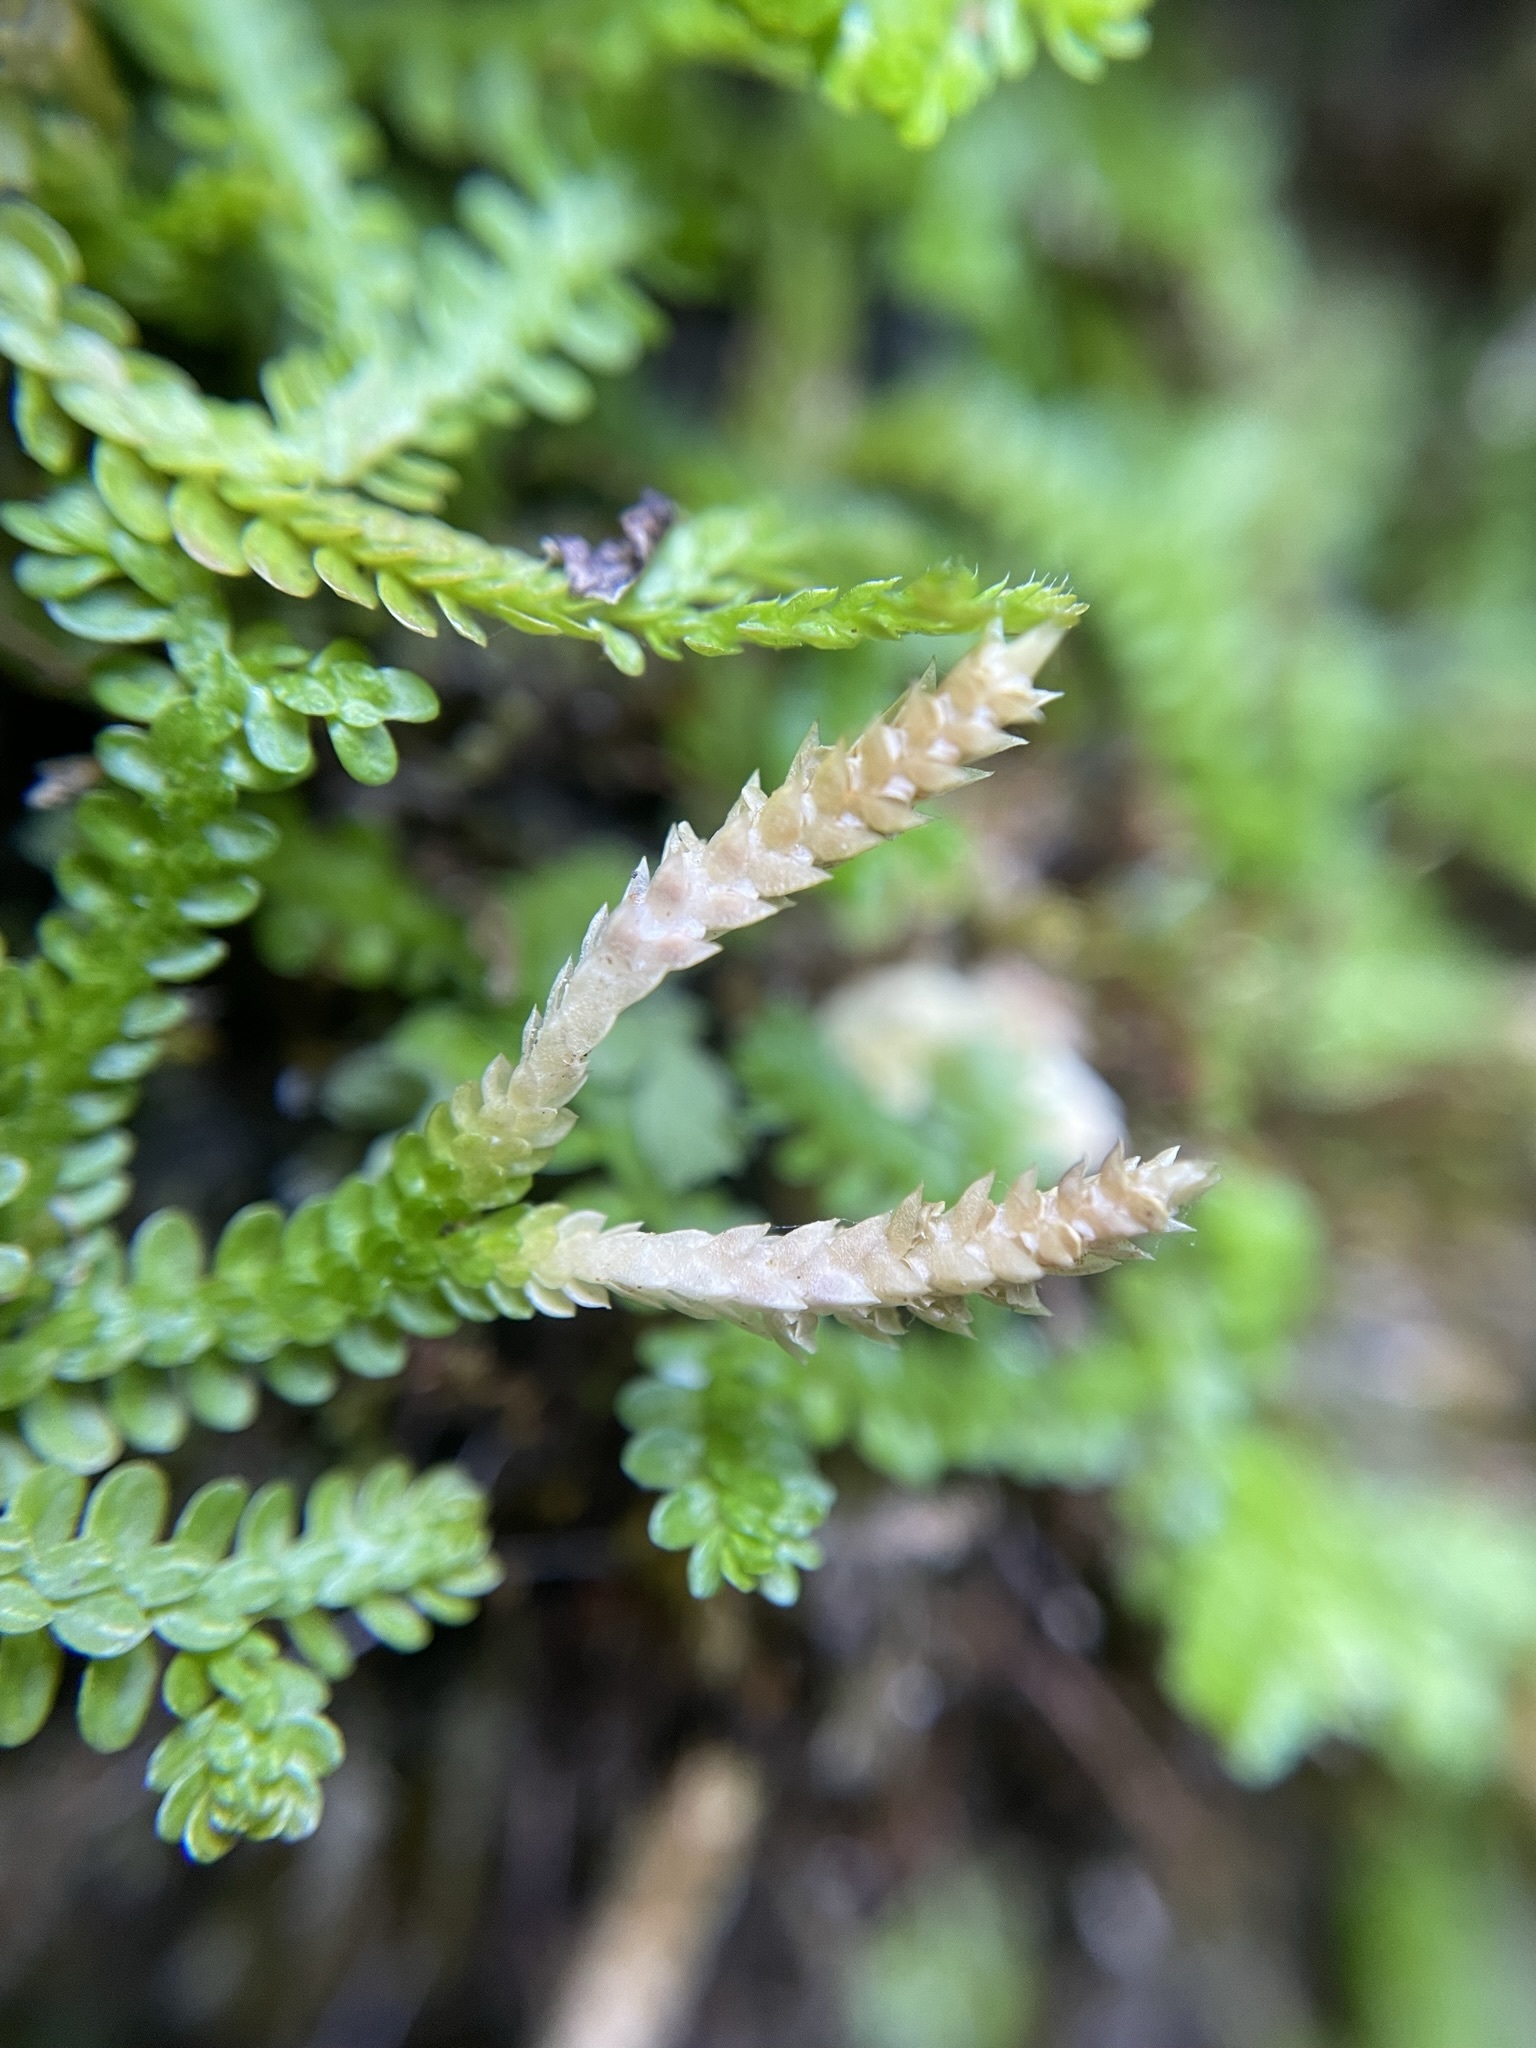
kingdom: Plantae
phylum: Tracheophyta
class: Lycopodiopsida
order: Selaginellales
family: Selaginellaceae
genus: Selaginella
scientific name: Selaginella douglasii
